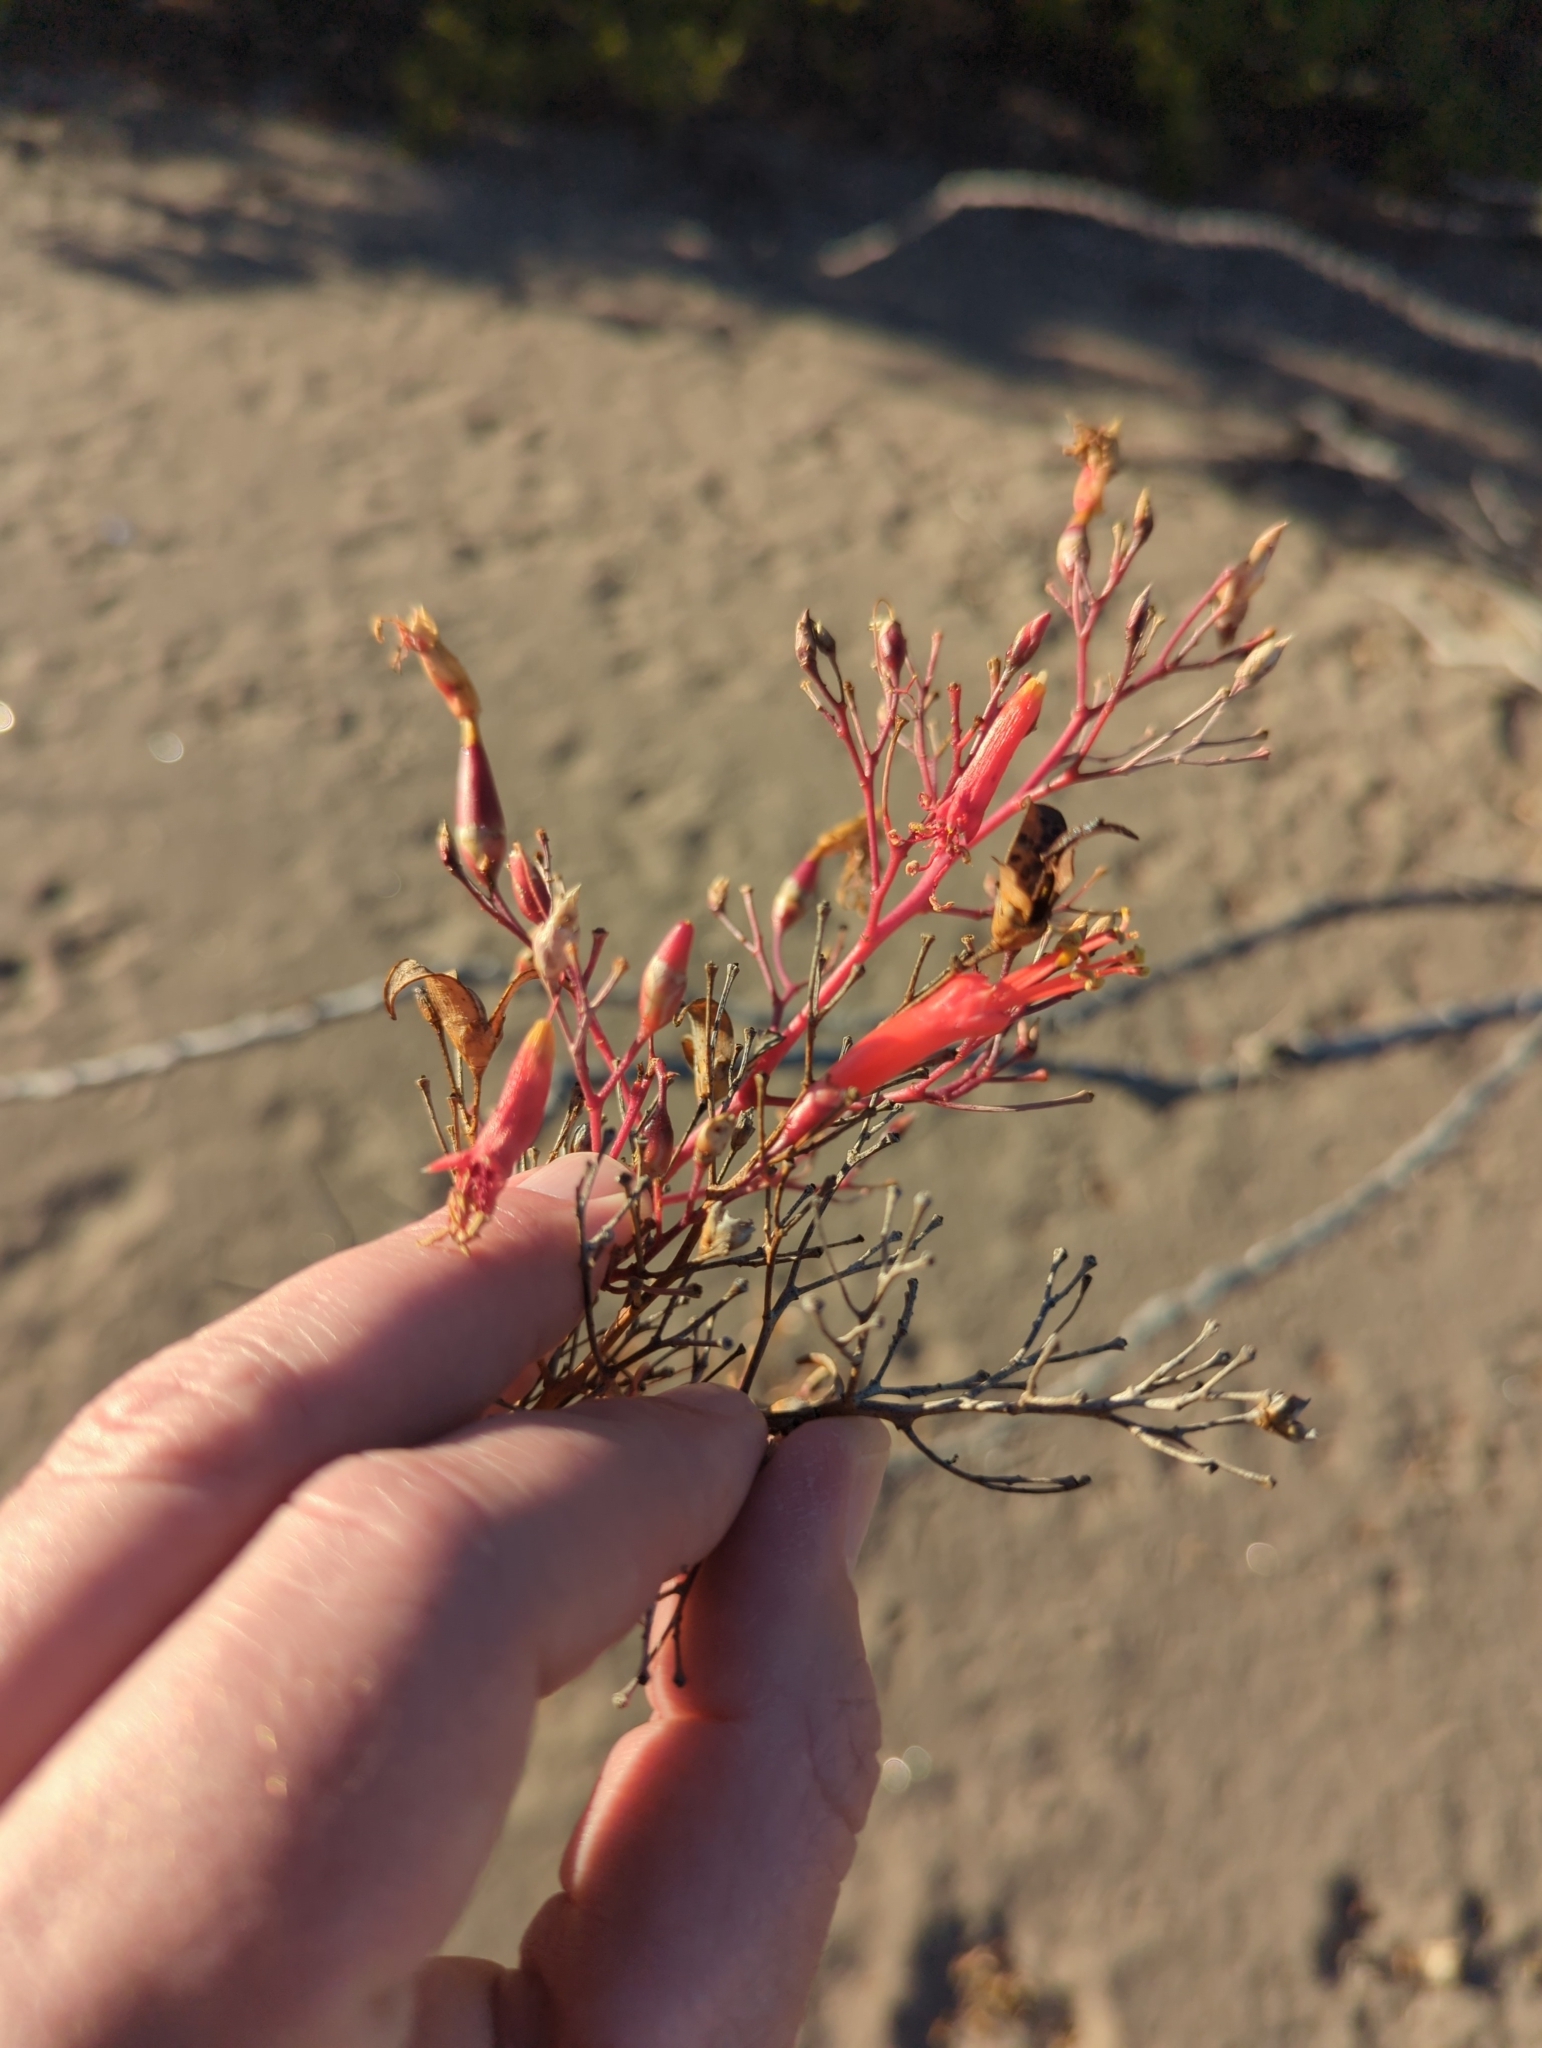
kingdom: Plantae
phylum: Tracheophyta
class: Magnoliopsida
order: Ericales
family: Fouquieriaceae
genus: Fouquieria
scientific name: Fouquieria diguetii
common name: Adam's tree
